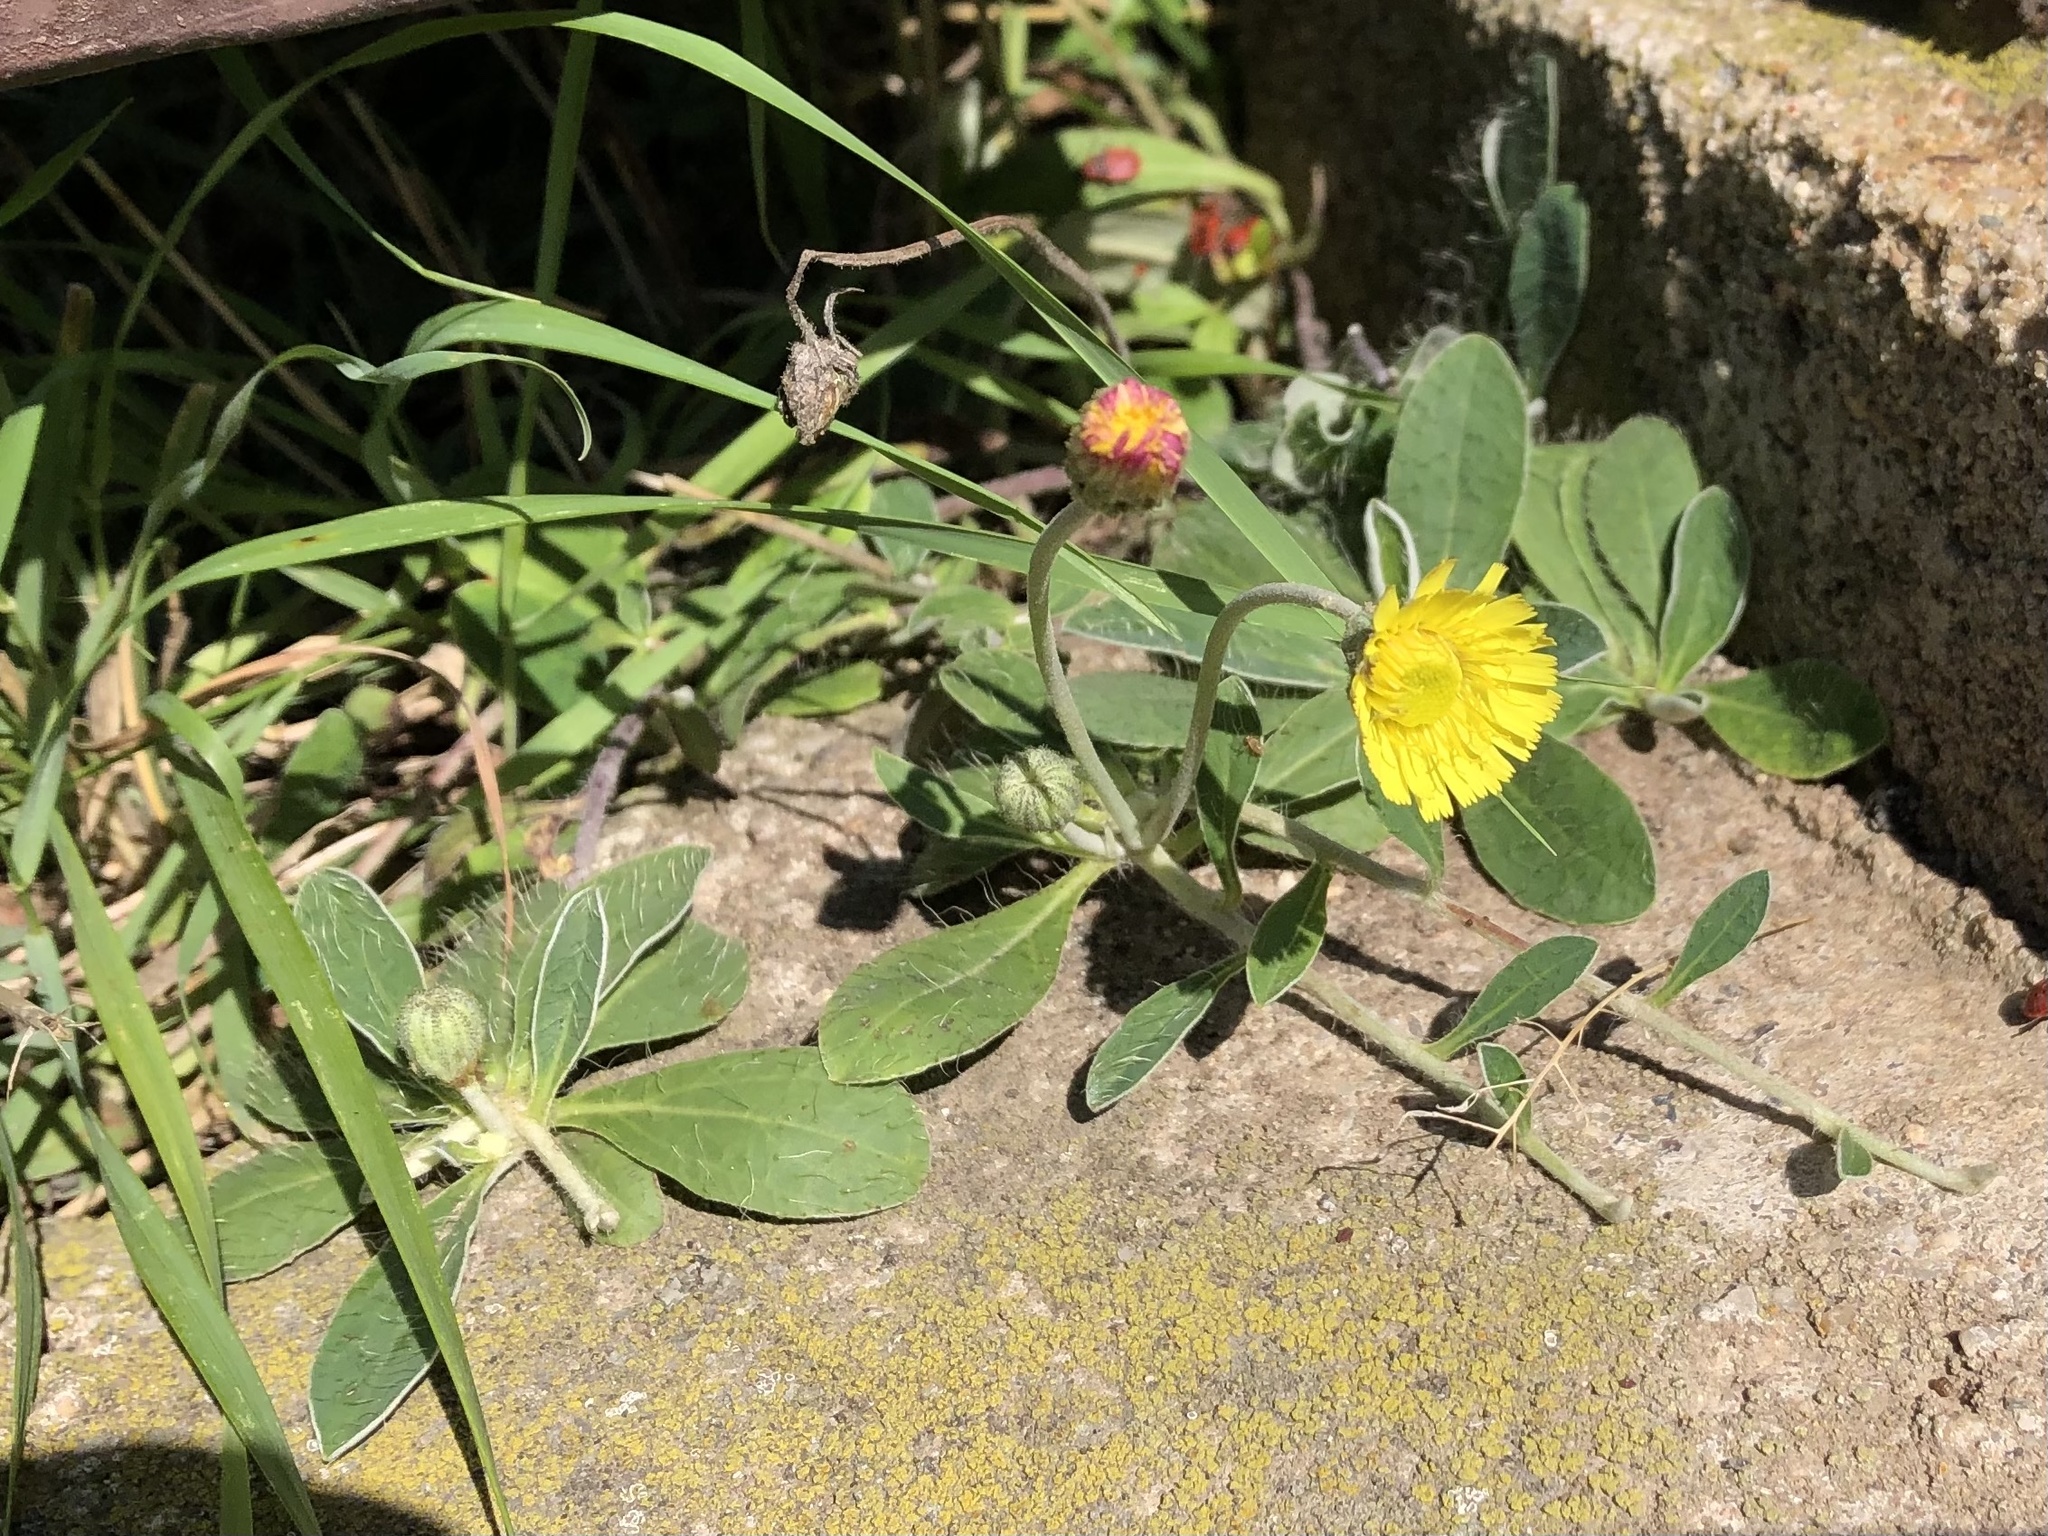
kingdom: Plantae
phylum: Tracheophyta
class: Magnoliopsida
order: Asterales
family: Asteraceae
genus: Pilosella
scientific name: Pilosella officinarum
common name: Mouse-ear hawkweed
